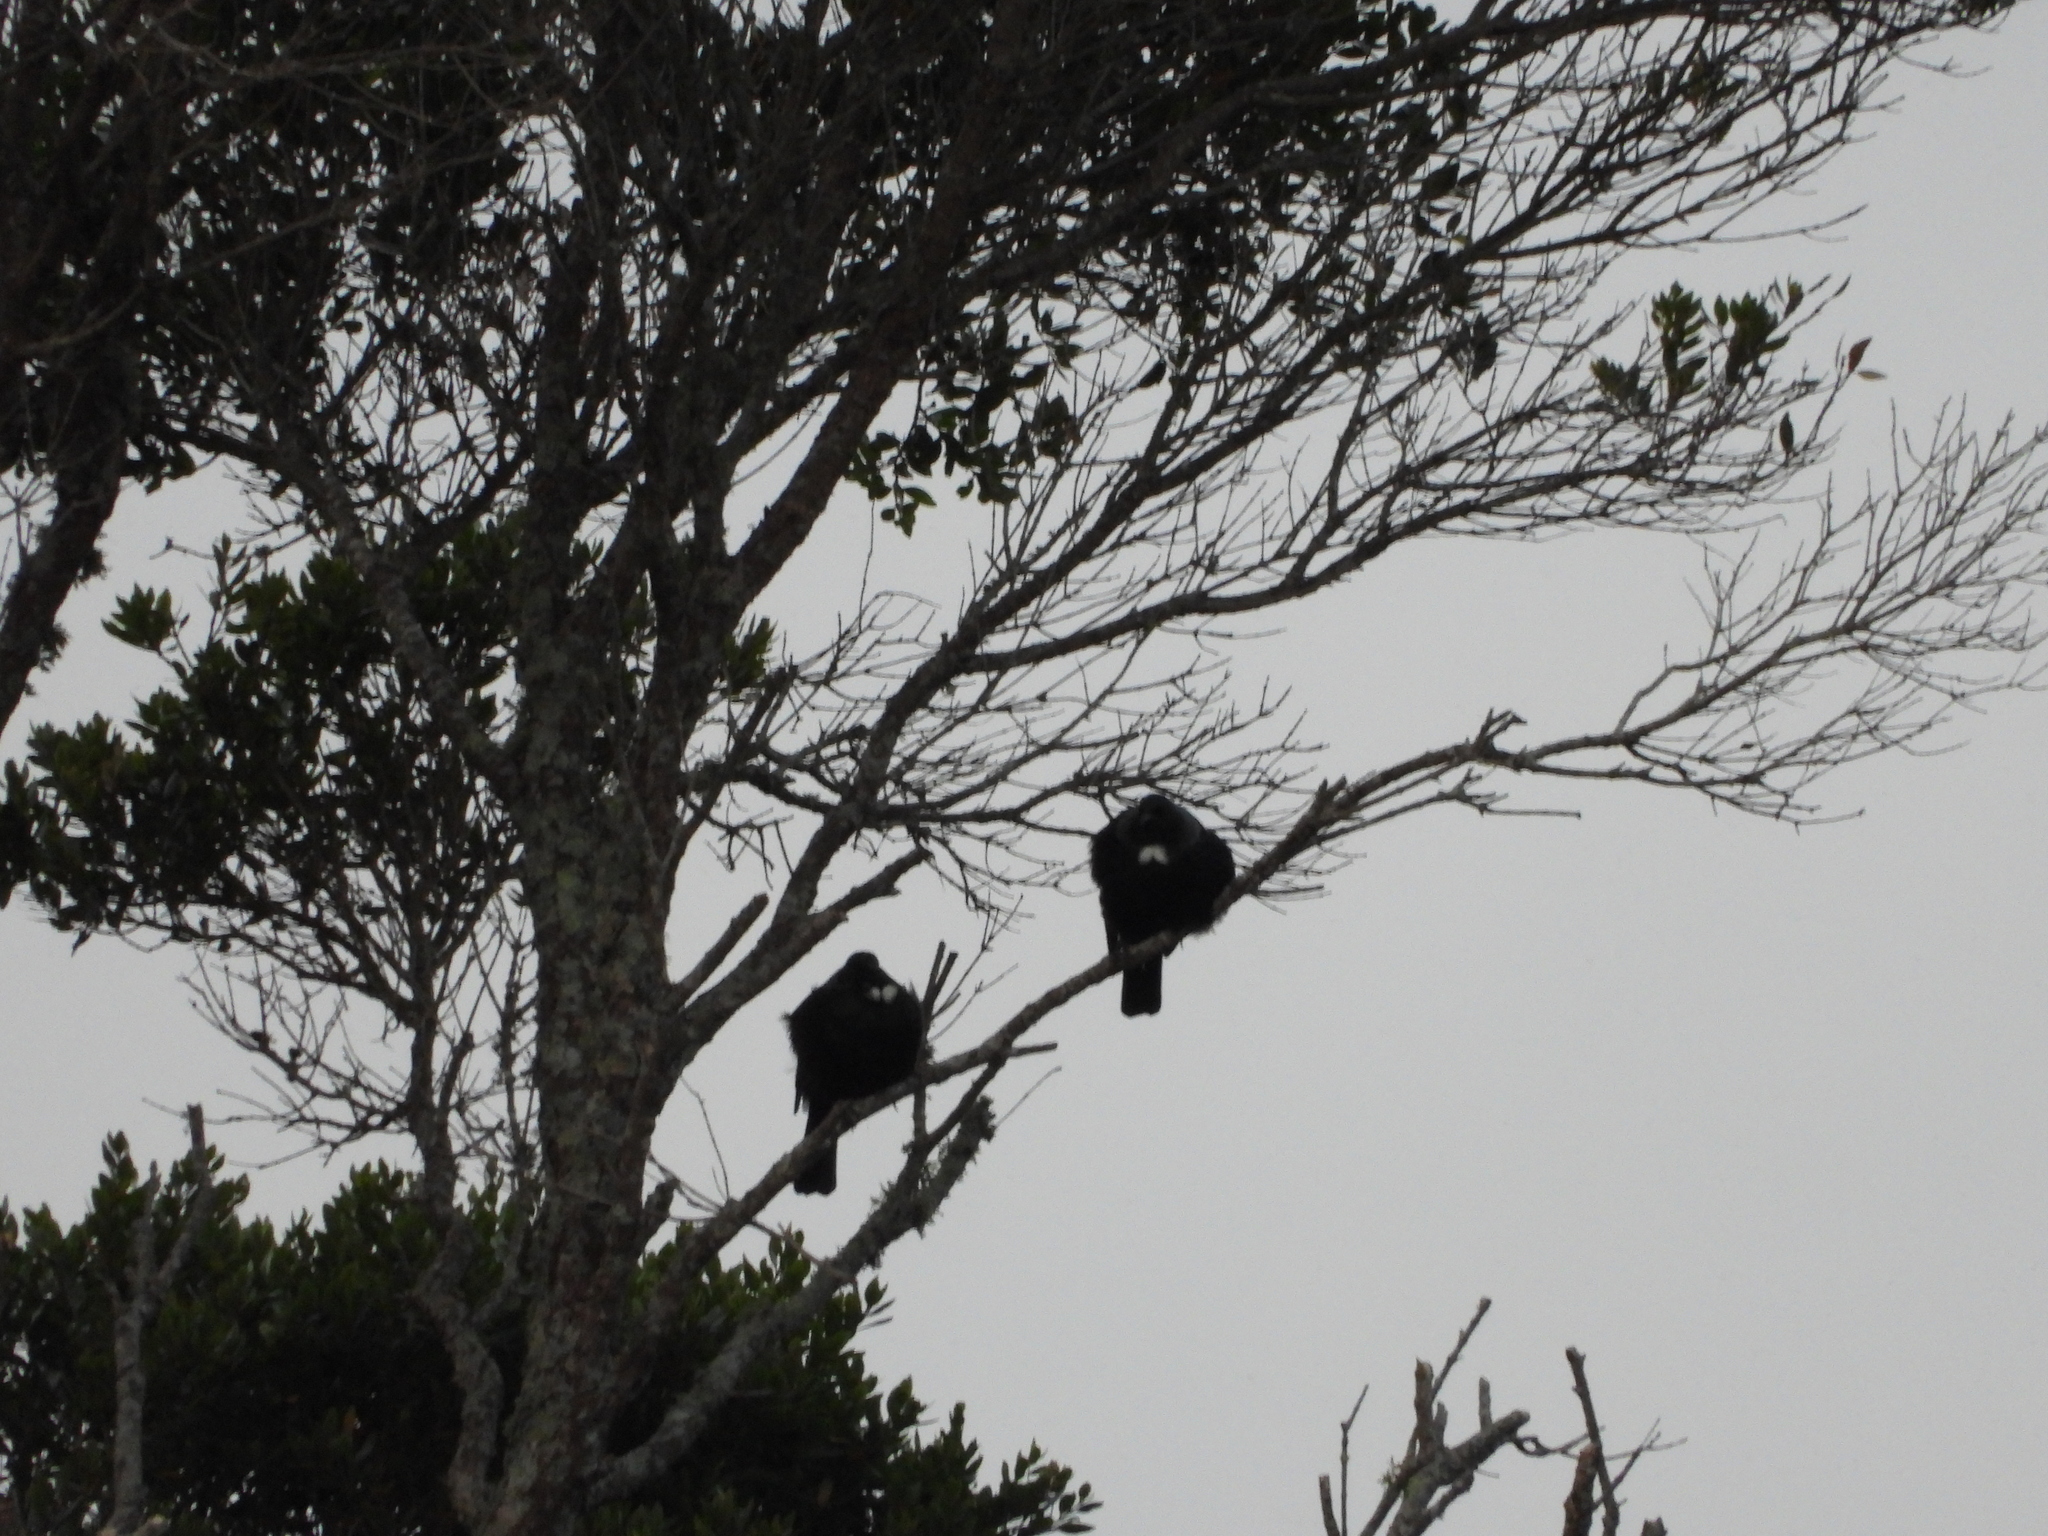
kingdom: Animalia
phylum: Chordata
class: Aves
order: Passeriformes
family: Meliphagidae
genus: Prosthemadera
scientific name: Prosthemadera novaeseelandiae
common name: Tui
